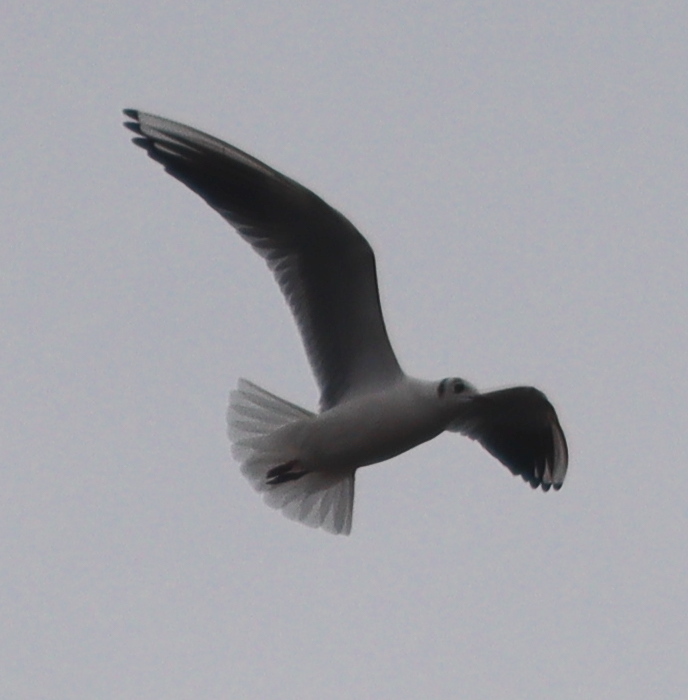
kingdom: Animalia
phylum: Chordata
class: Aves
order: Charadriiformes
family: Laridae
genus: Chroicocephalus
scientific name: Chroicocephalus ridibundus
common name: Black-headed gull
